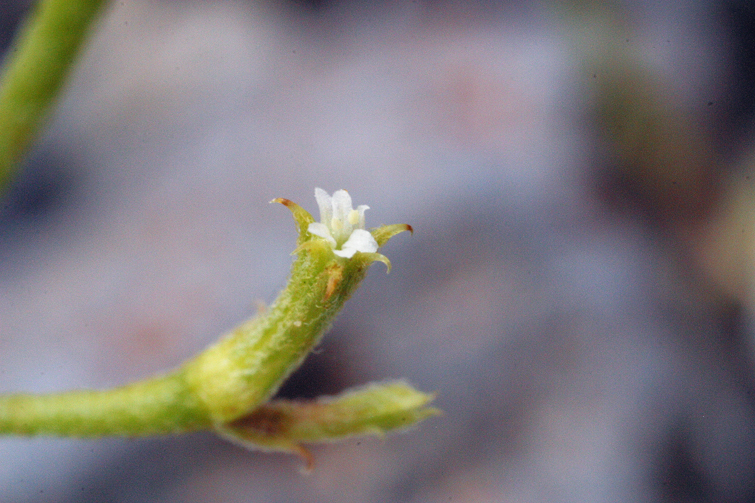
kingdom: Plantae
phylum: Tracheophyta
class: Magnoliopsida
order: Caryophyllales
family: Polygonaceae
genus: Chorizanthe
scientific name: Chorizanthe brevicornu
